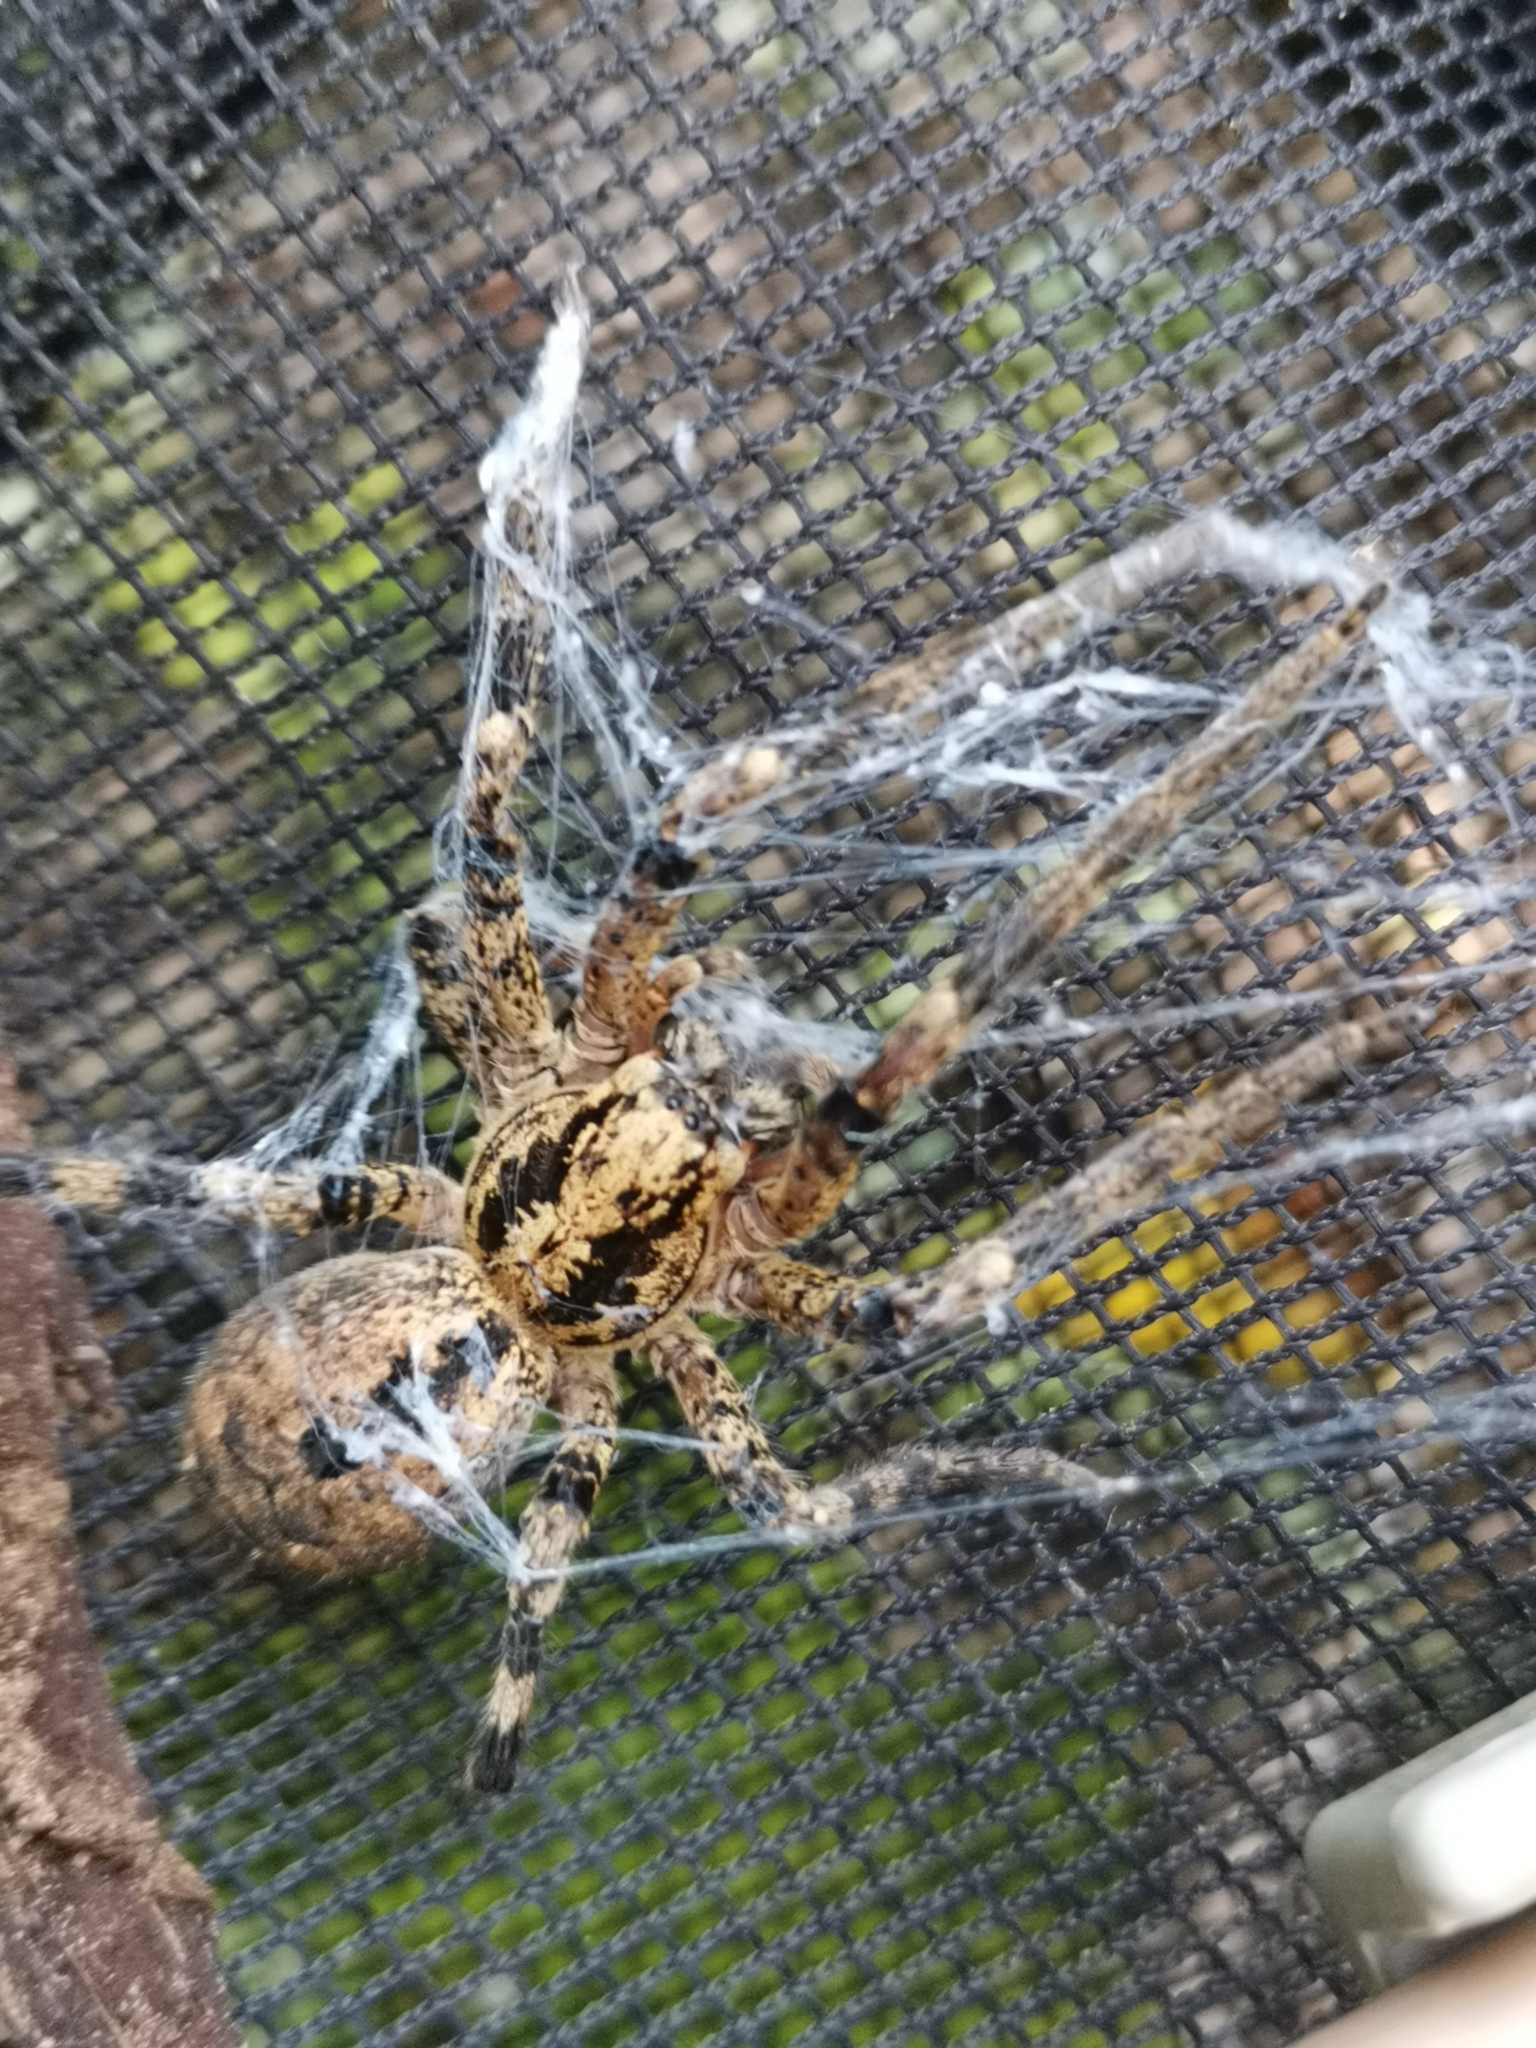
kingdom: Animalia
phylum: Arthropoda
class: Arachnida
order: Araneae
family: Zoropsidae
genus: Zoropsis
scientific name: Zoropsis spinimana
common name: Zoropsid spider
